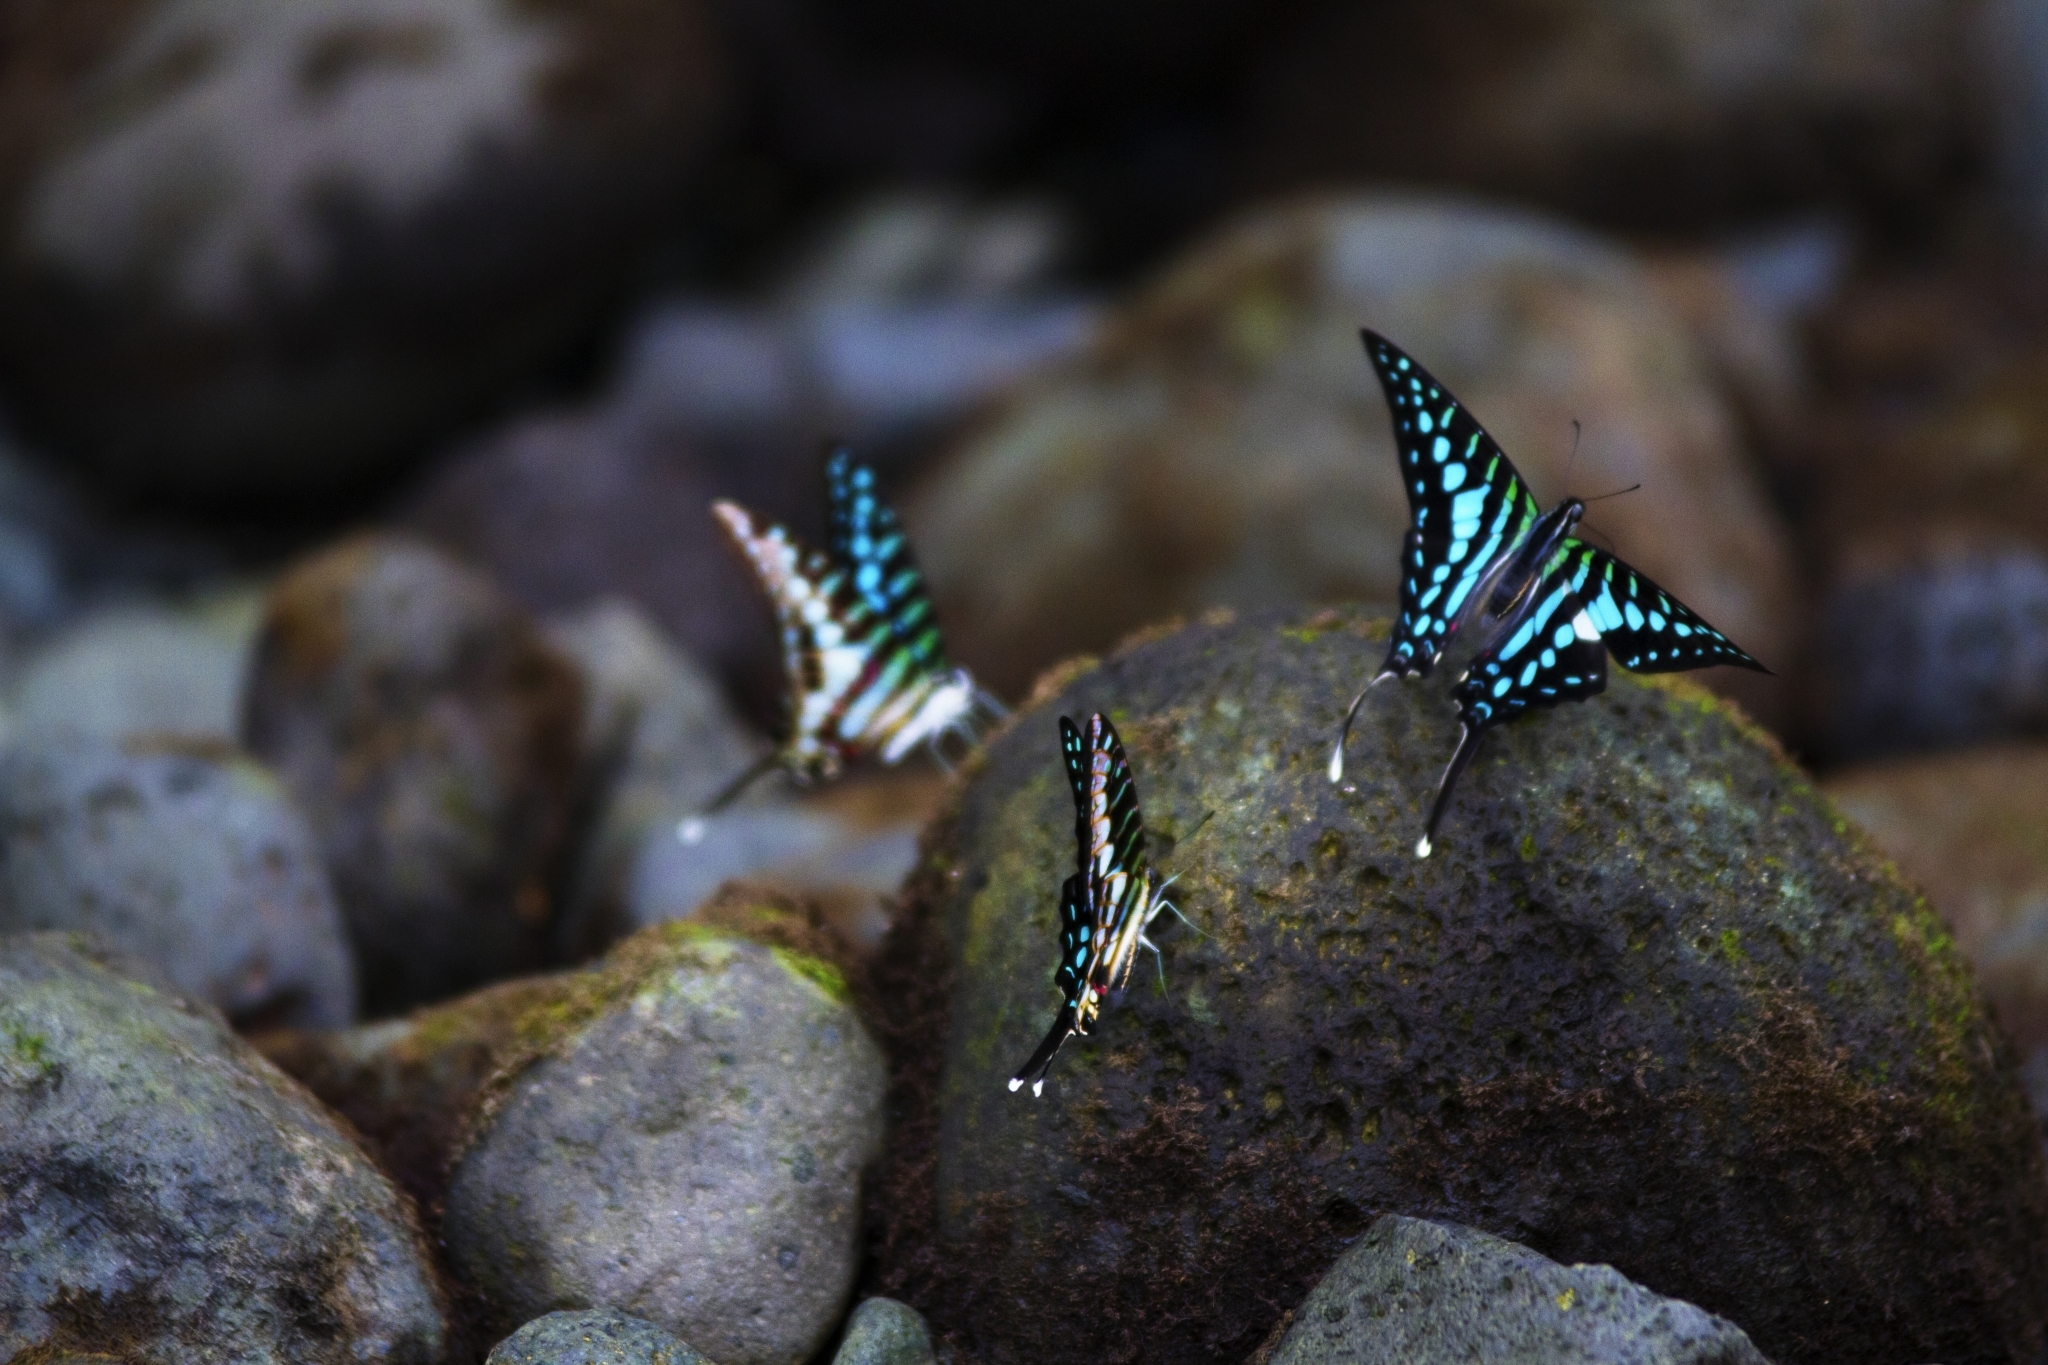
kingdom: Animalia
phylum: Arthropoda
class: Insecta
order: Lepidoptera
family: Papilionidae
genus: Graphium
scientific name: Graphium policenes
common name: Common swordtail
